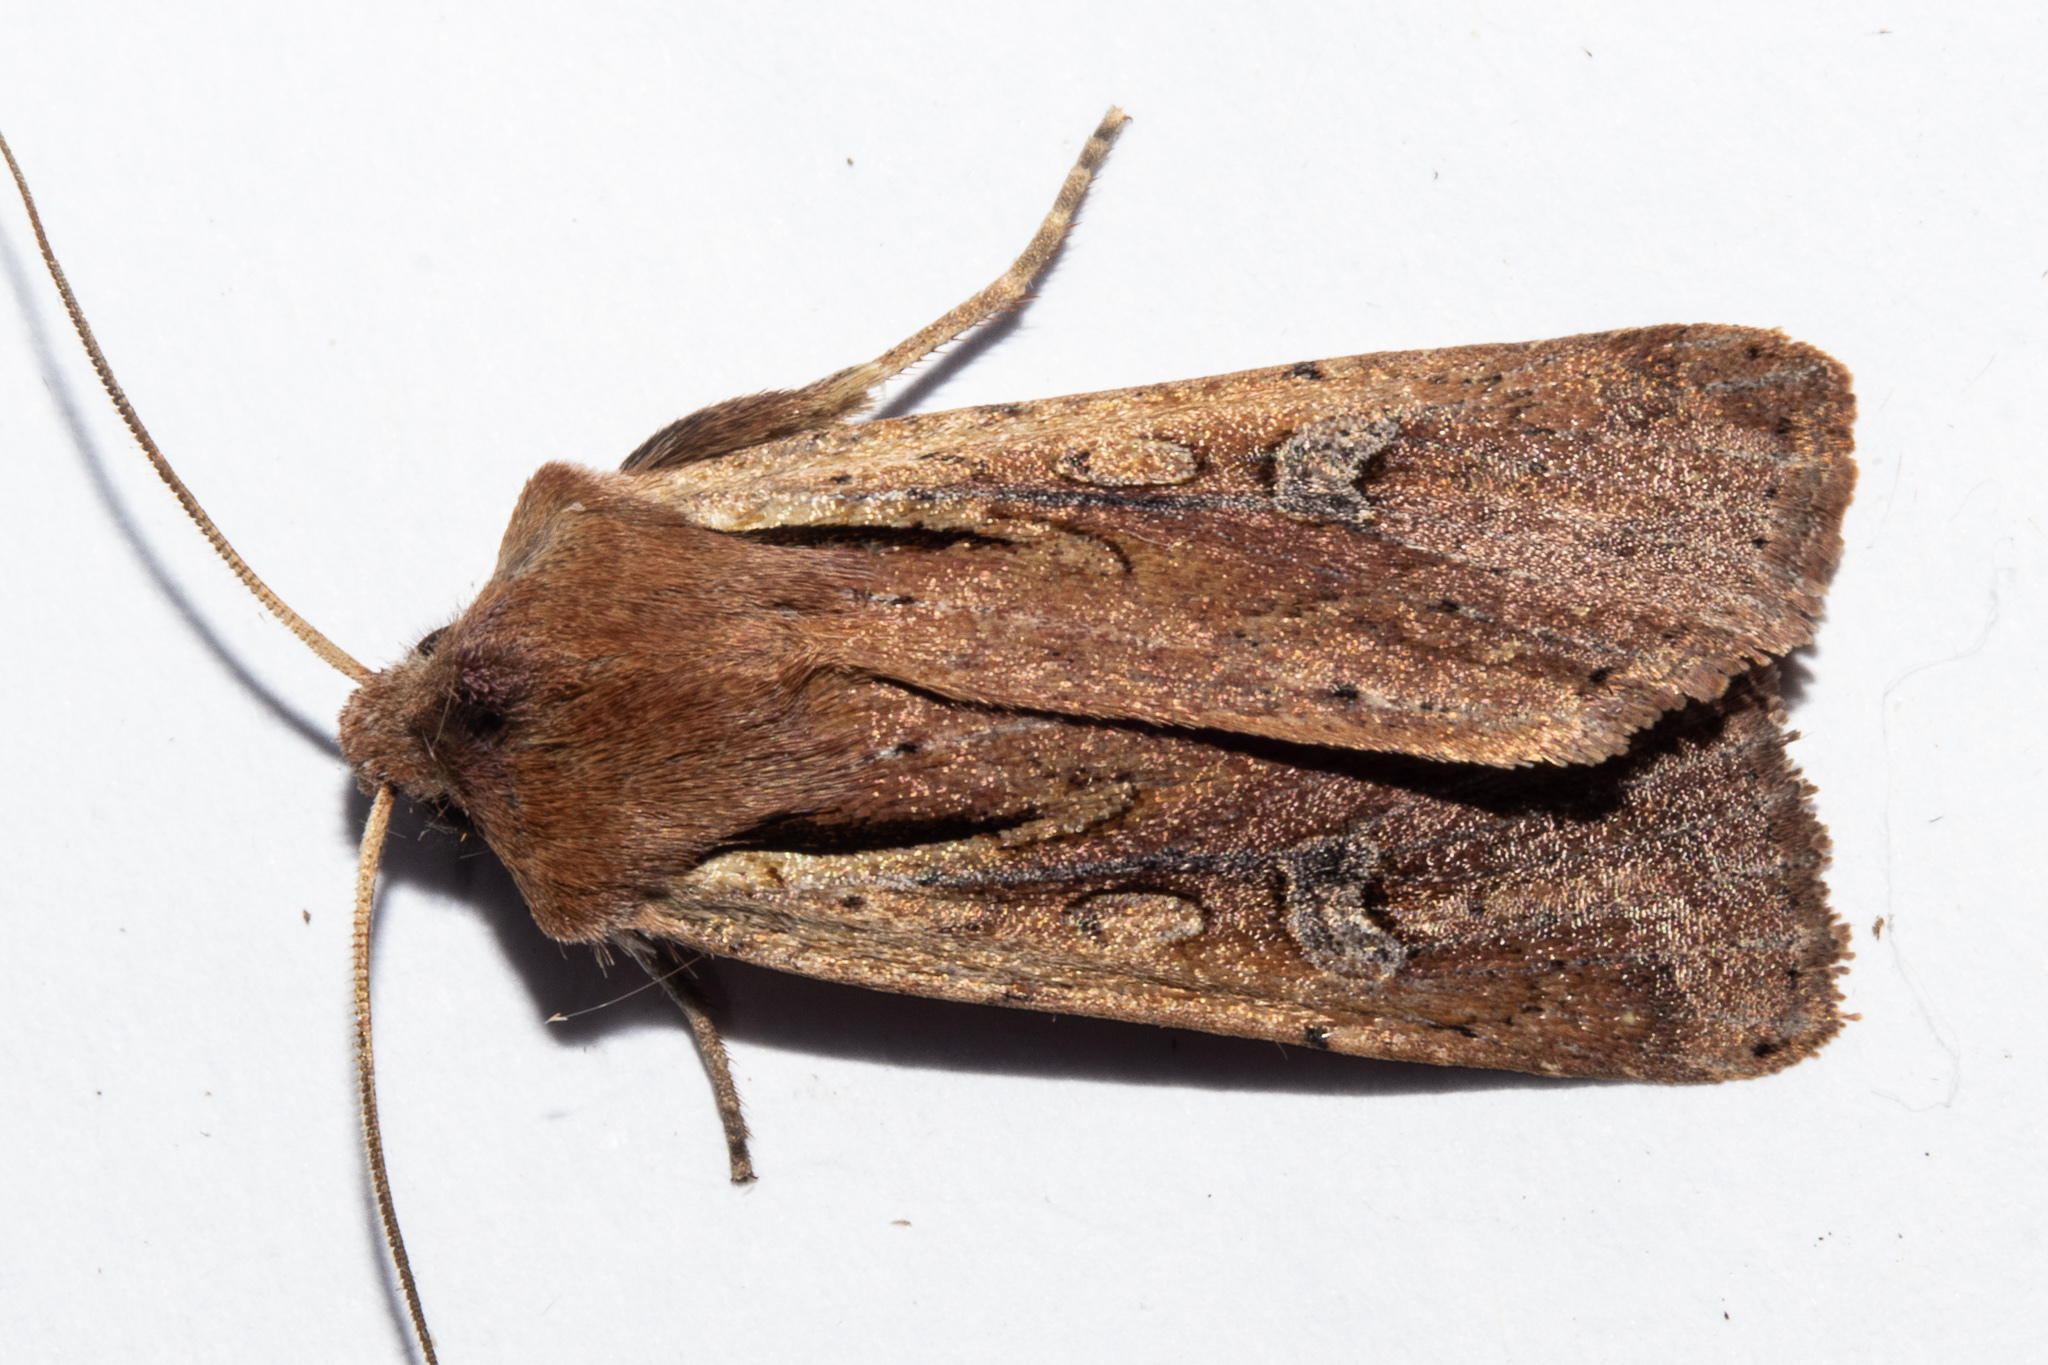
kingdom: Animalia
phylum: Arthropoda
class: Insecta
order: Lepidoptera
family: Noctuidae
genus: Ichneutica
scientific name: Ichneutica atristriga
